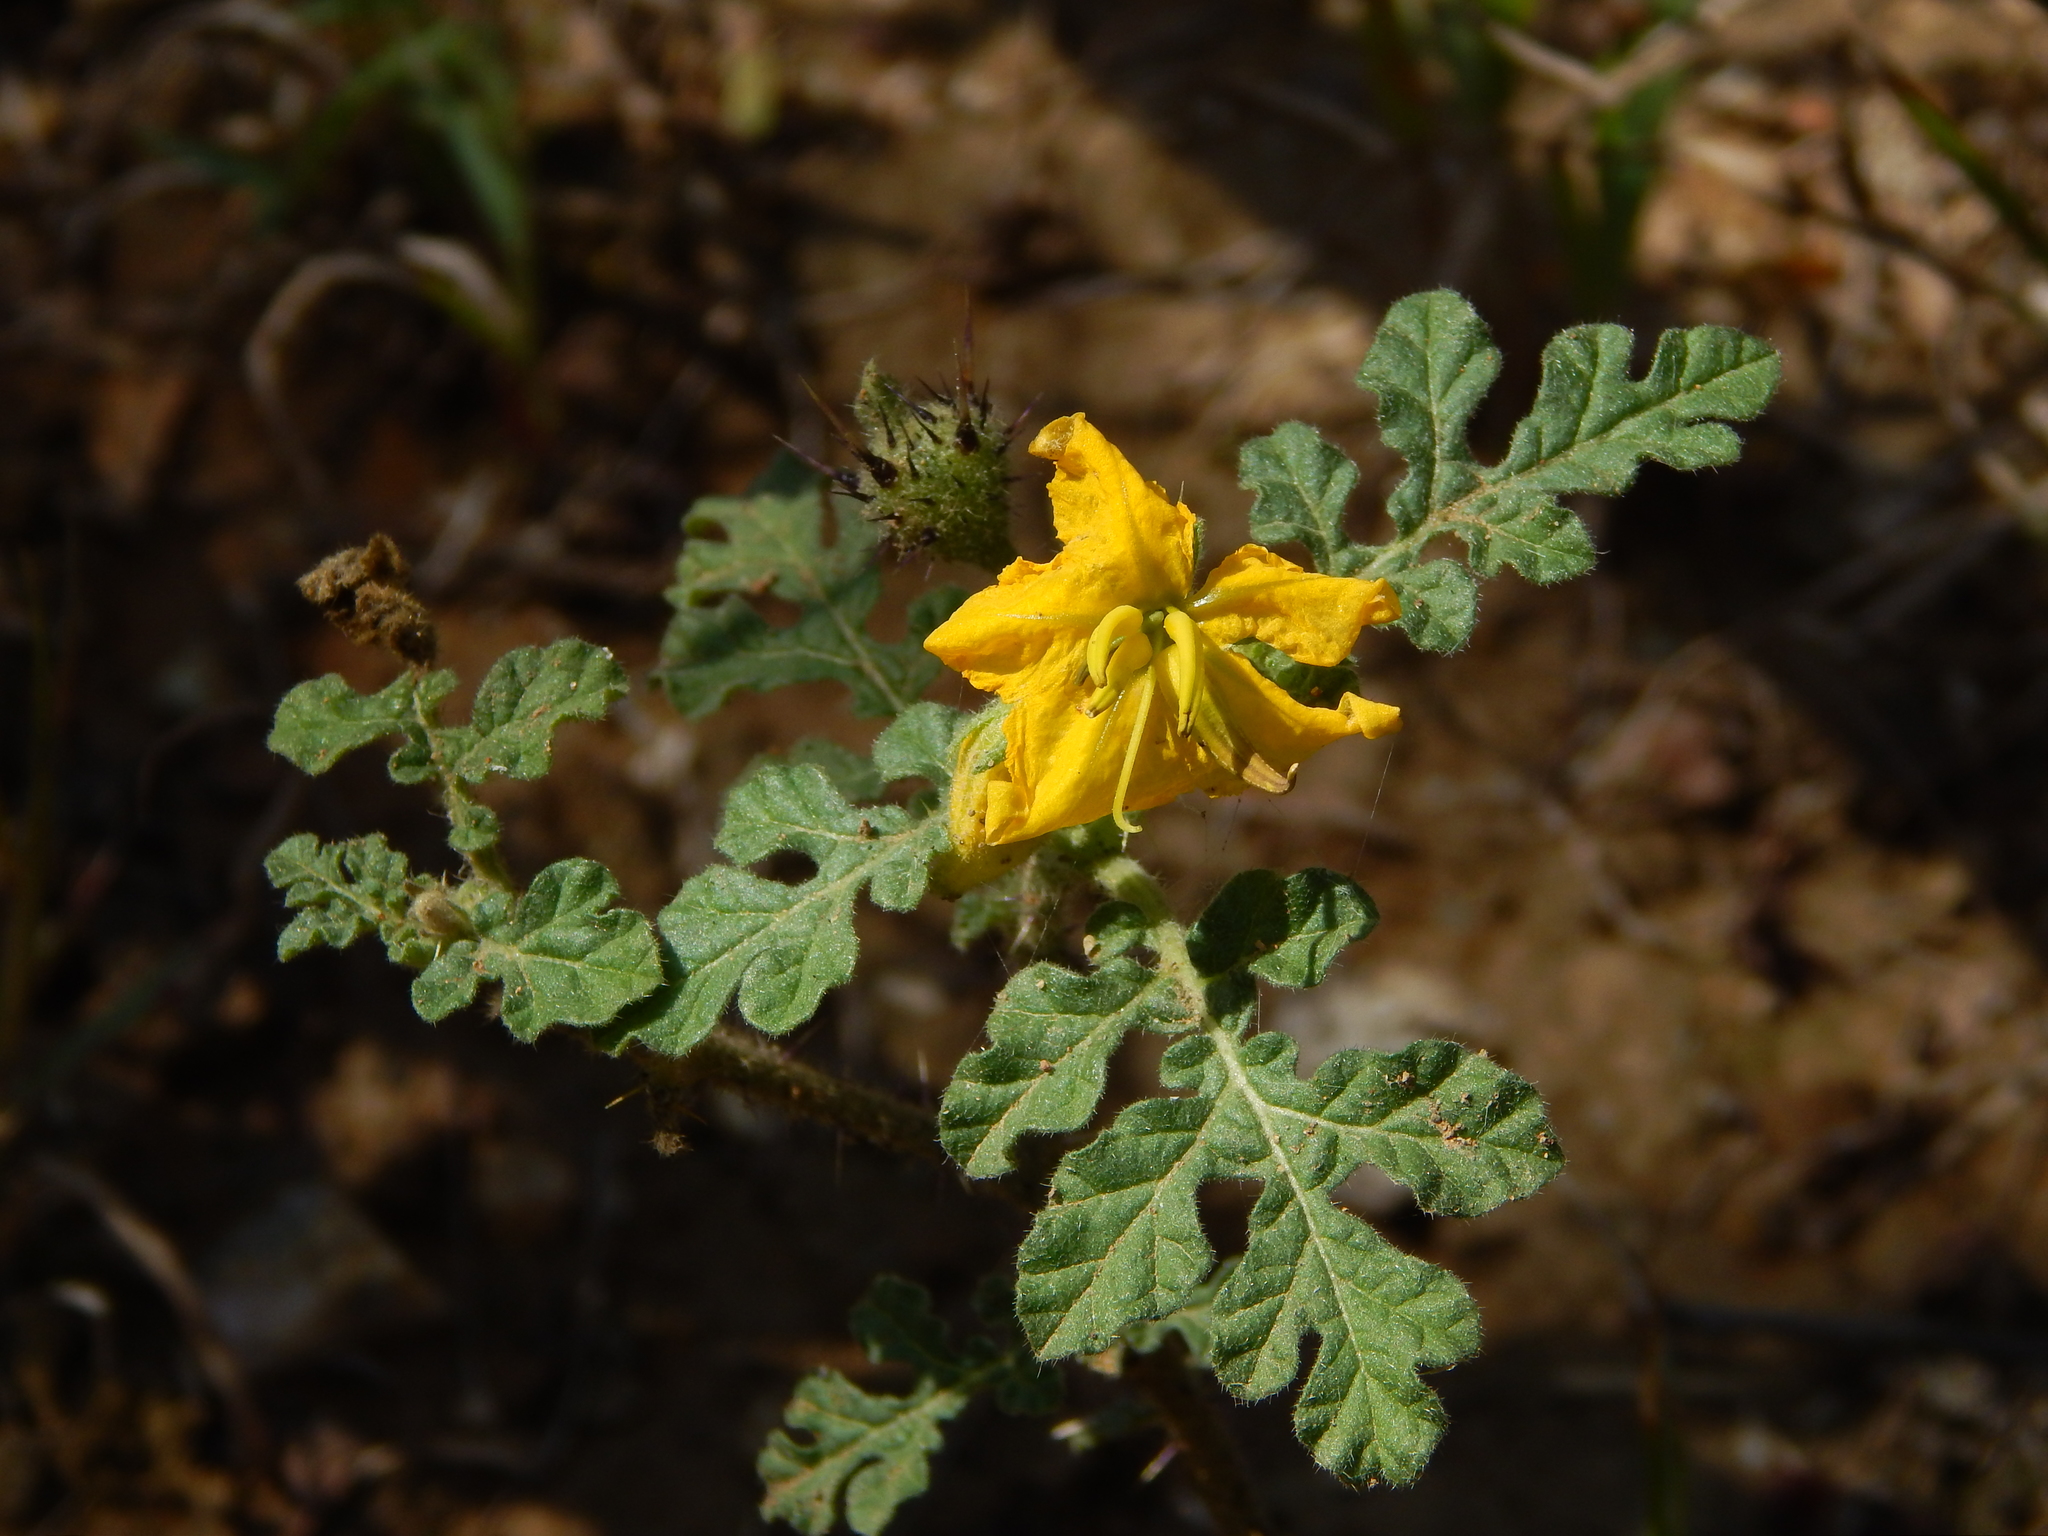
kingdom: Plantae
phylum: Tracheophyta
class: Magnoliopsida
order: Solanales
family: Solanaceae
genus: Solanum
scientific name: Solanum angustifolium
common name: Buffalobur nightshade
